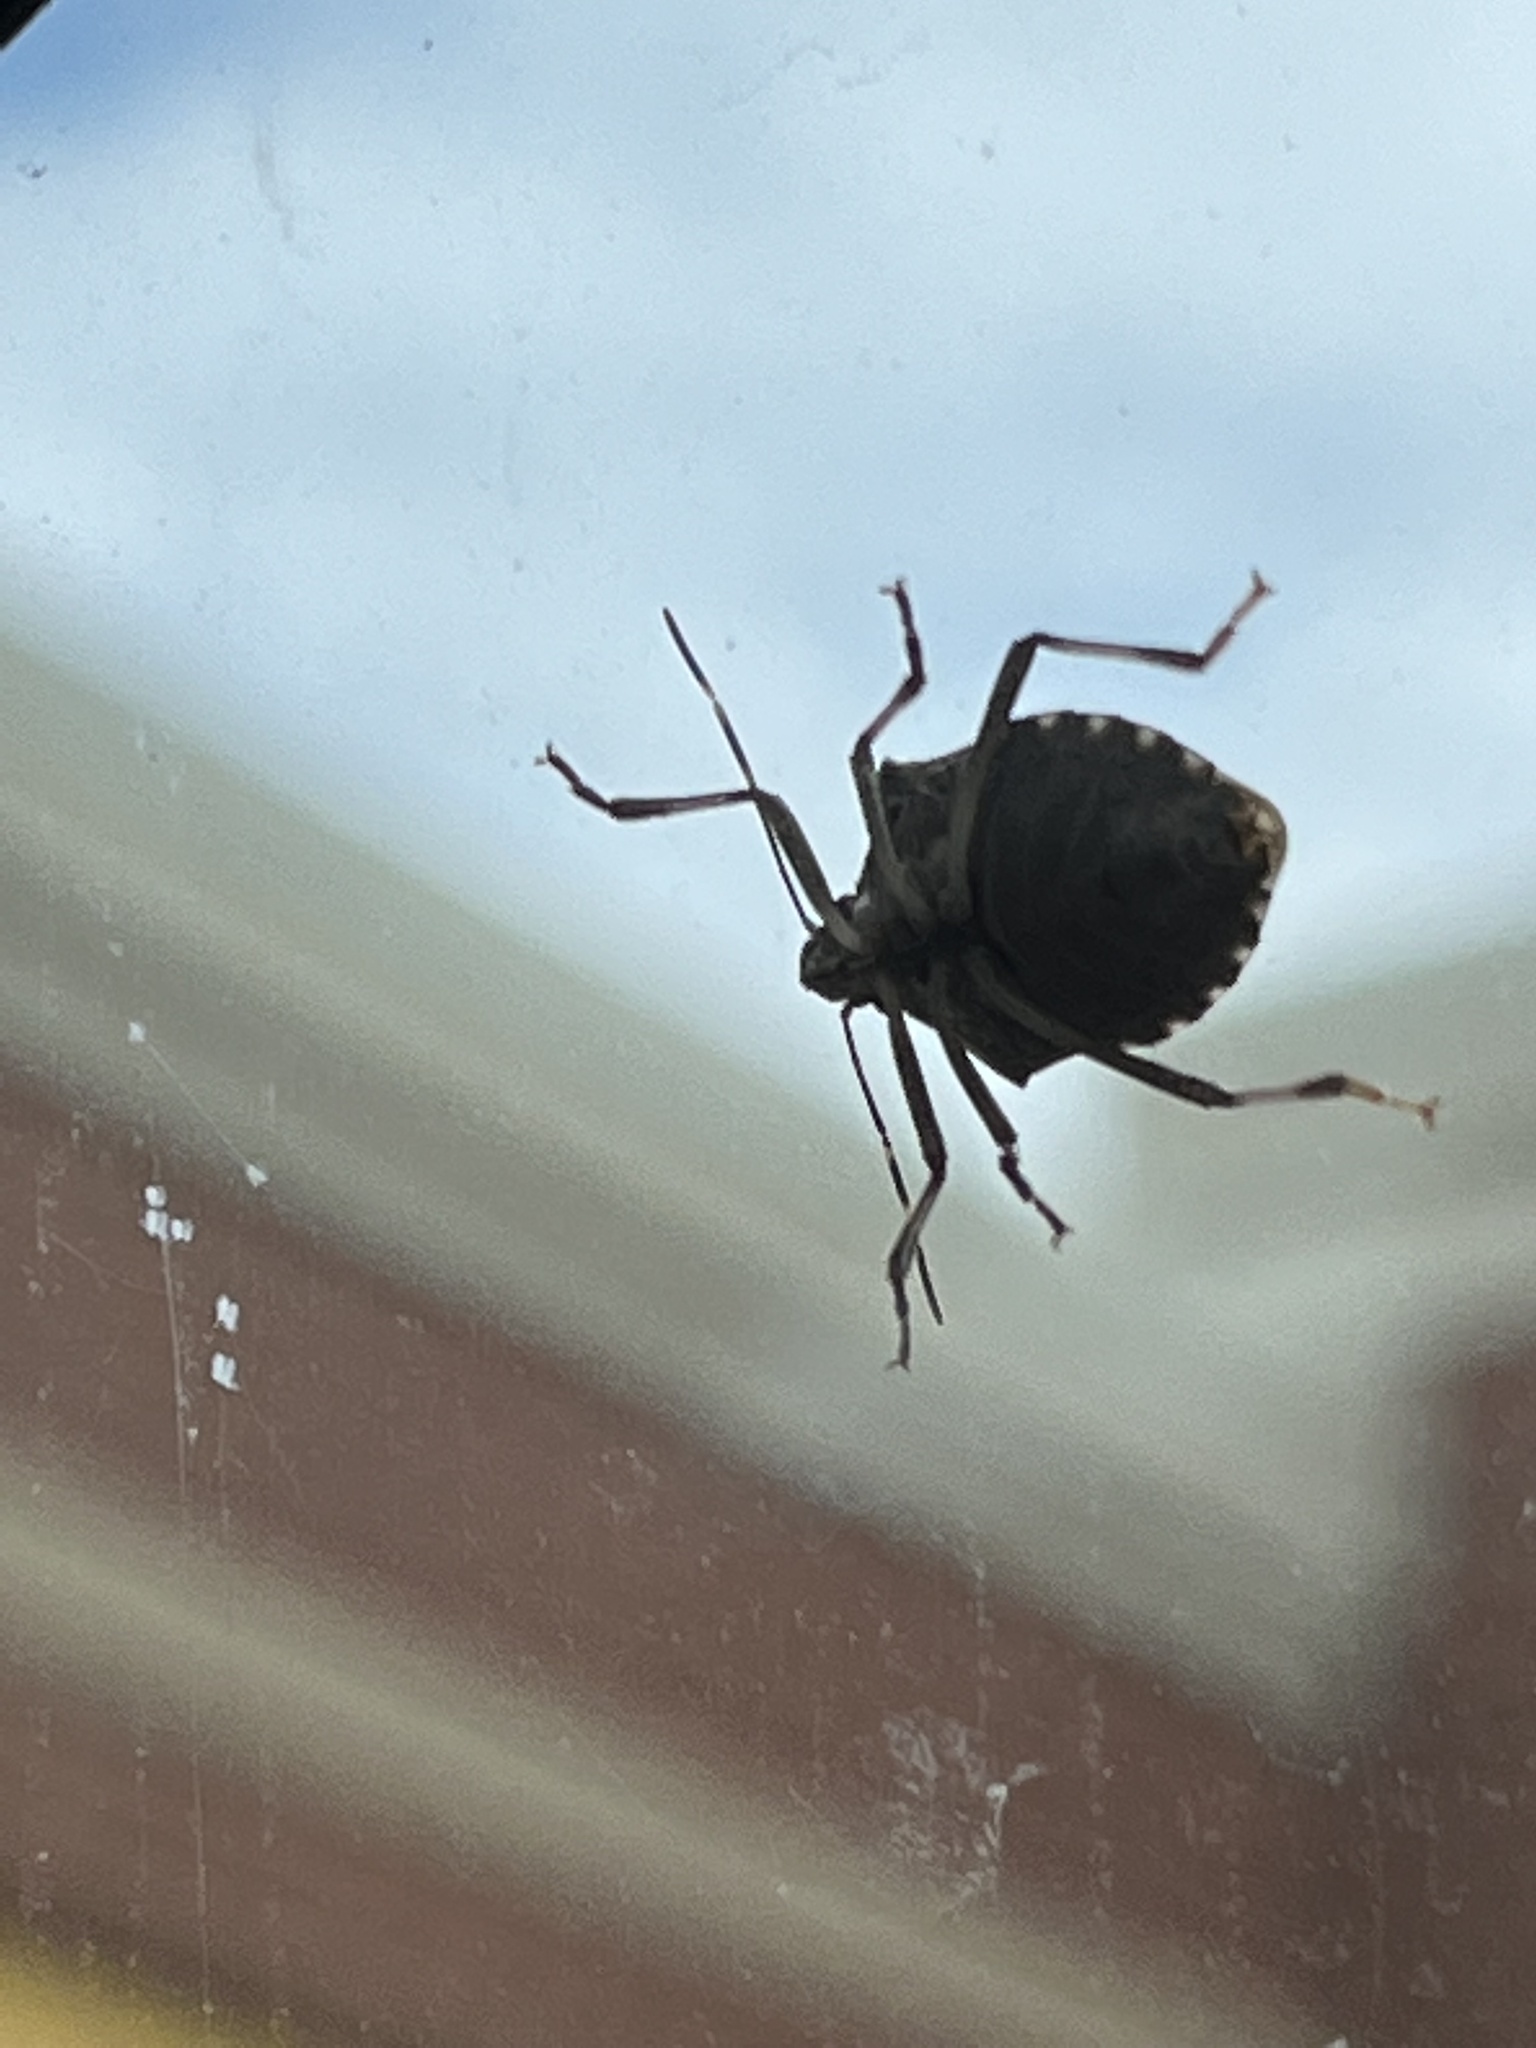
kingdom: Animalia
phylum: Arthropoda
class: Insecta
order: Hemiptera
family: Pentatomidae
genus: Halyomorpha
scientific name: Halyomorpha halys
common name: Brown marmorated stink bug
